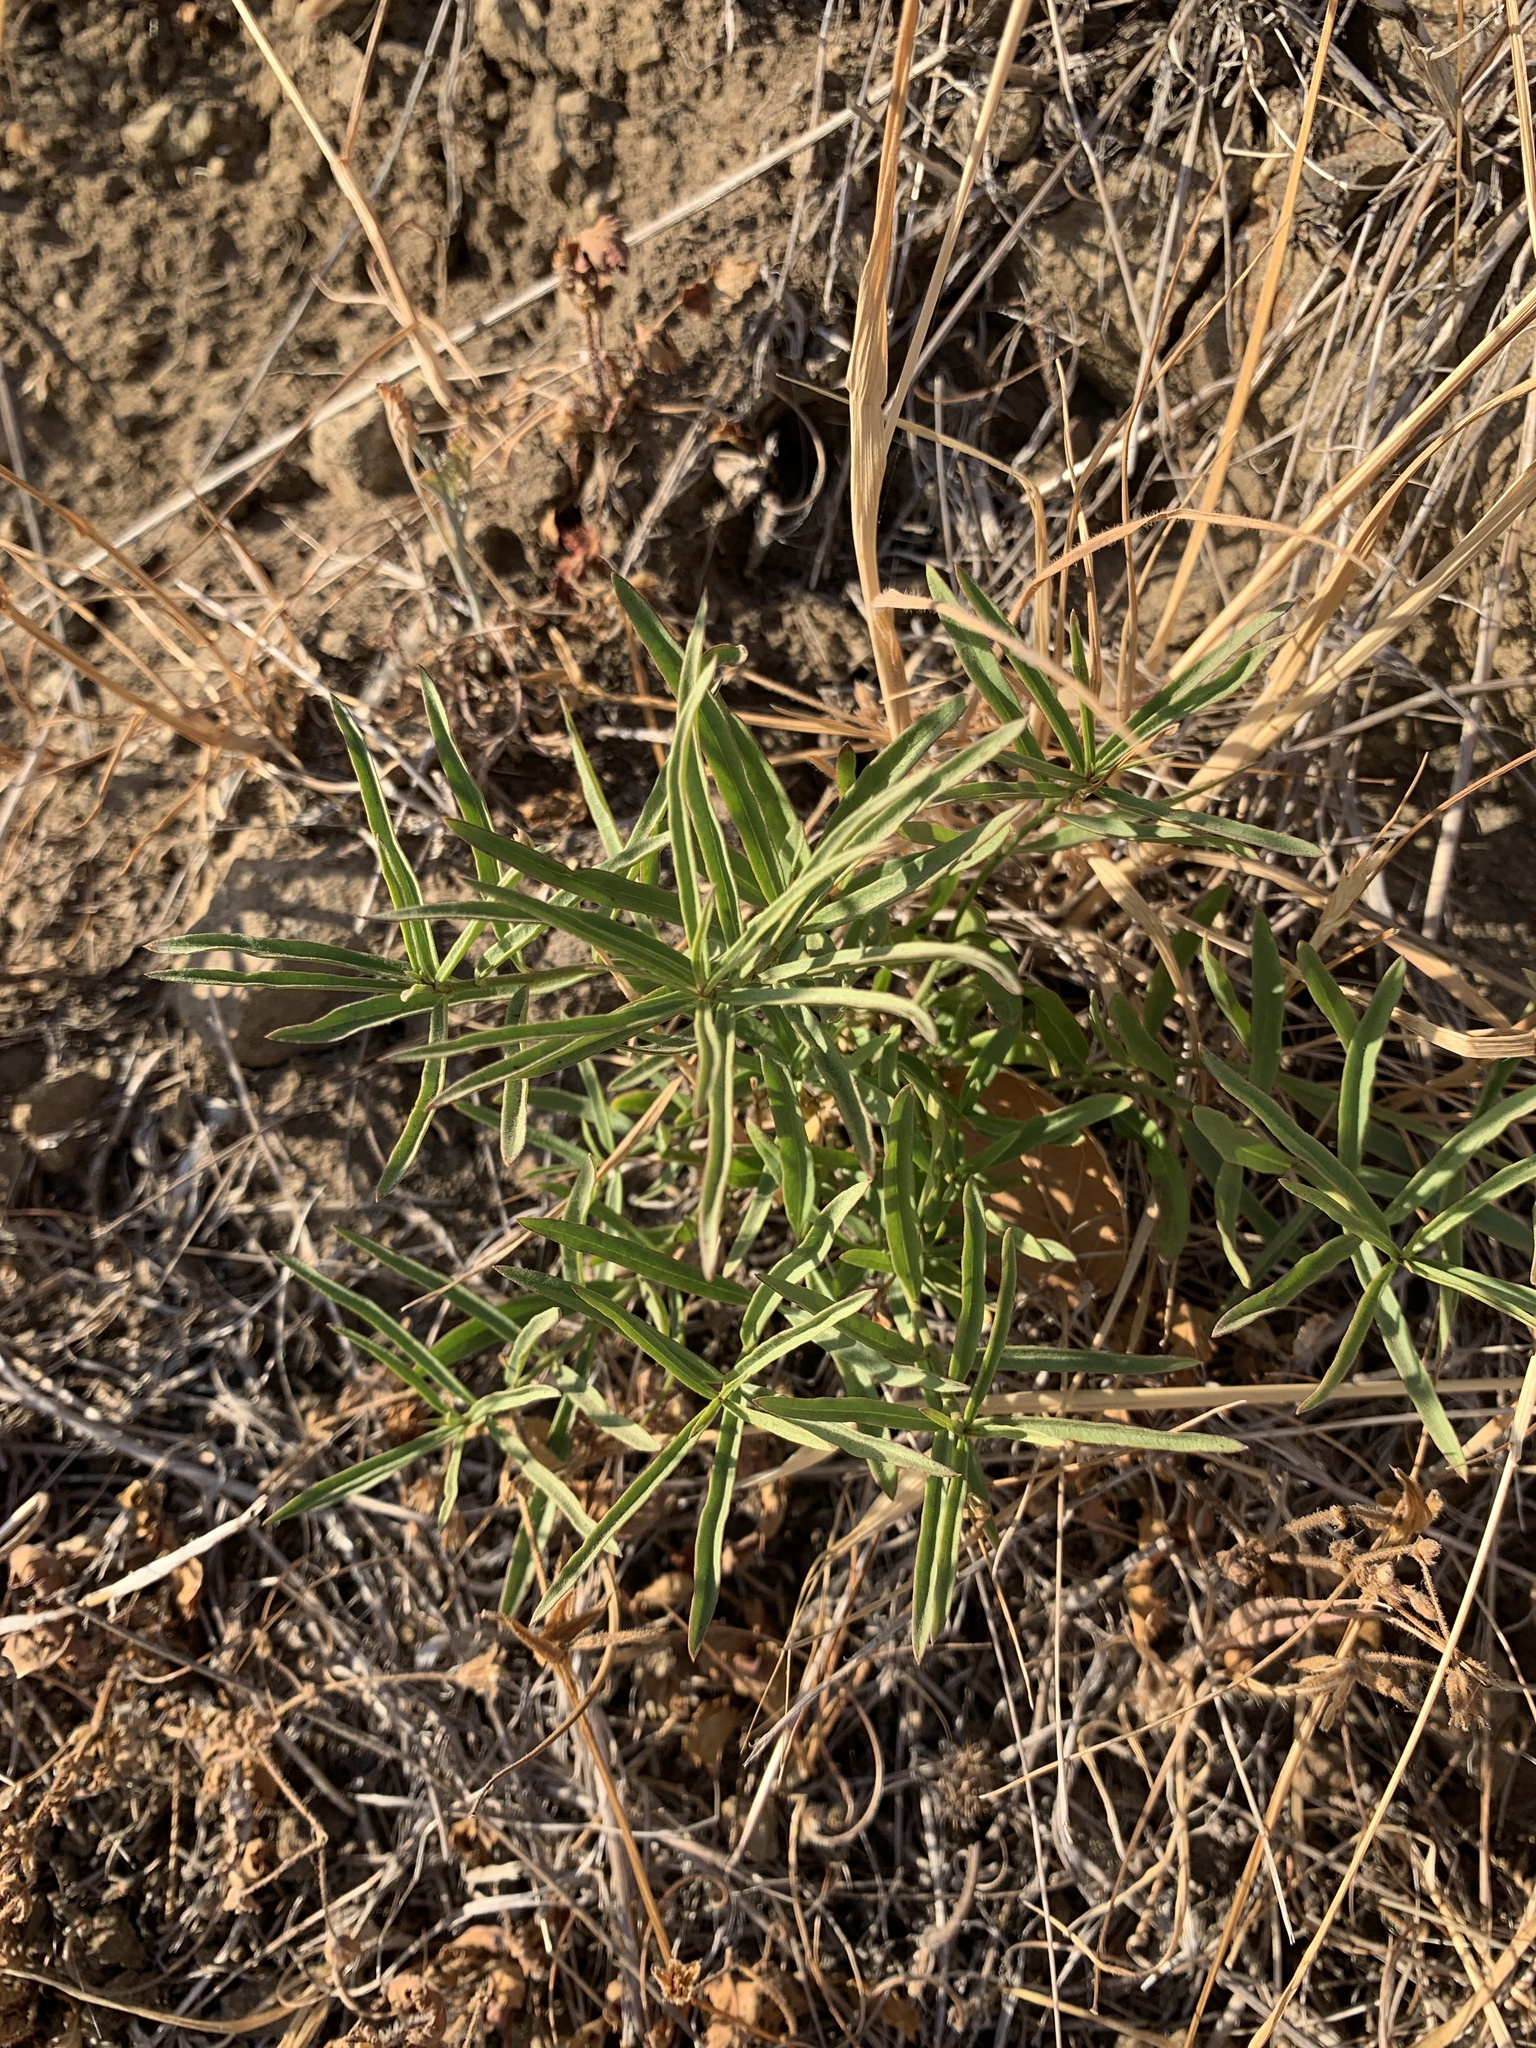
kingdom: Plantae
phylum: Tracheophyta
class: Magnoliopsida
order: Gentianales
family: Apocynaceae
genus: Asclepias
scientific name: Asclepias fascicularis
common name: Mexican milkweed
